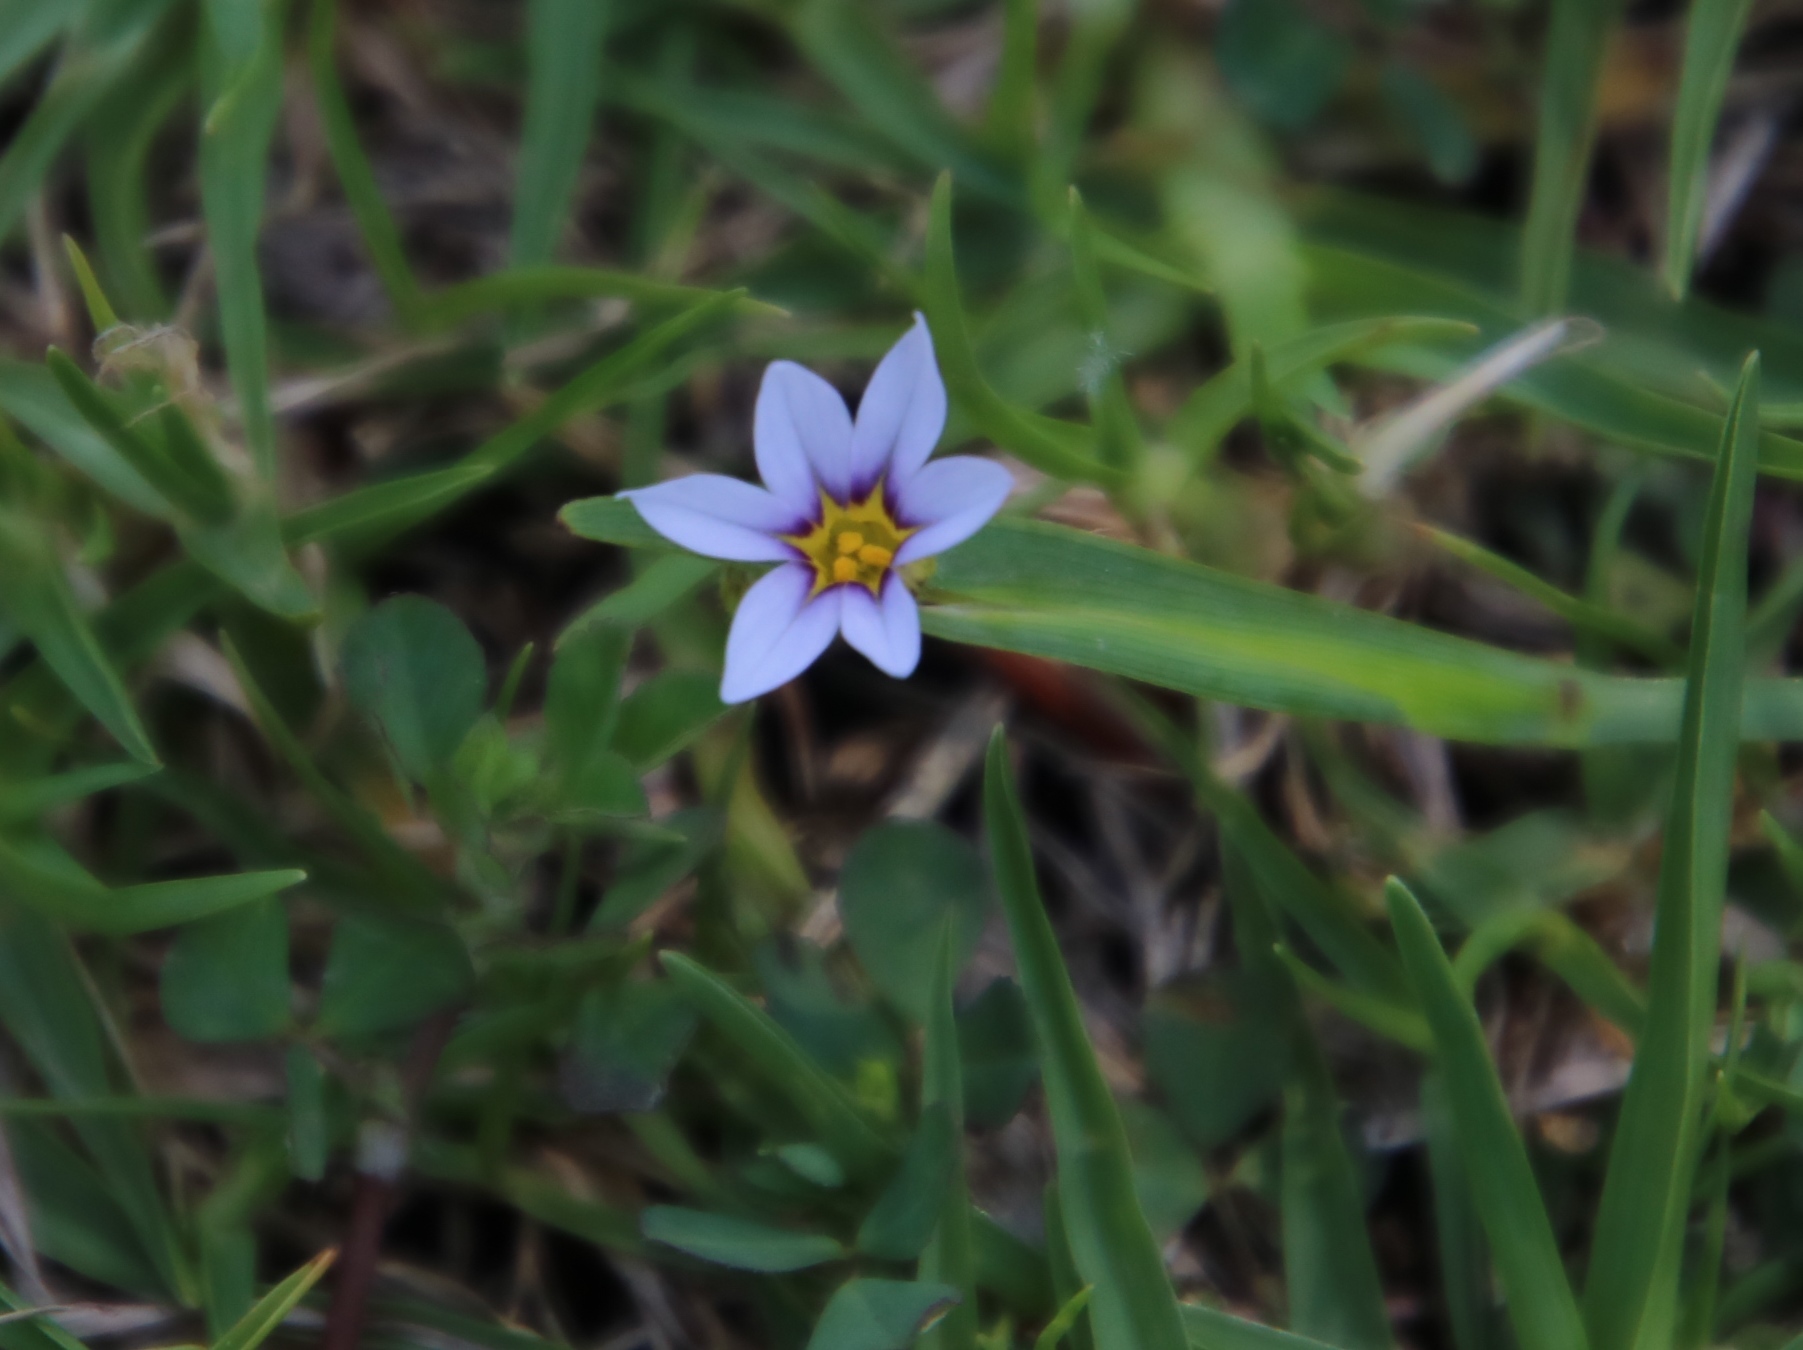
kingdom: Plantae
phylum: Tracheophyta
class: Liliopsida
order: Asparagales
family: Iridaceae
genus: Sisyrinchium
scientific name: Sisyrinchium micranthum
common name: Bermuda pigroot
